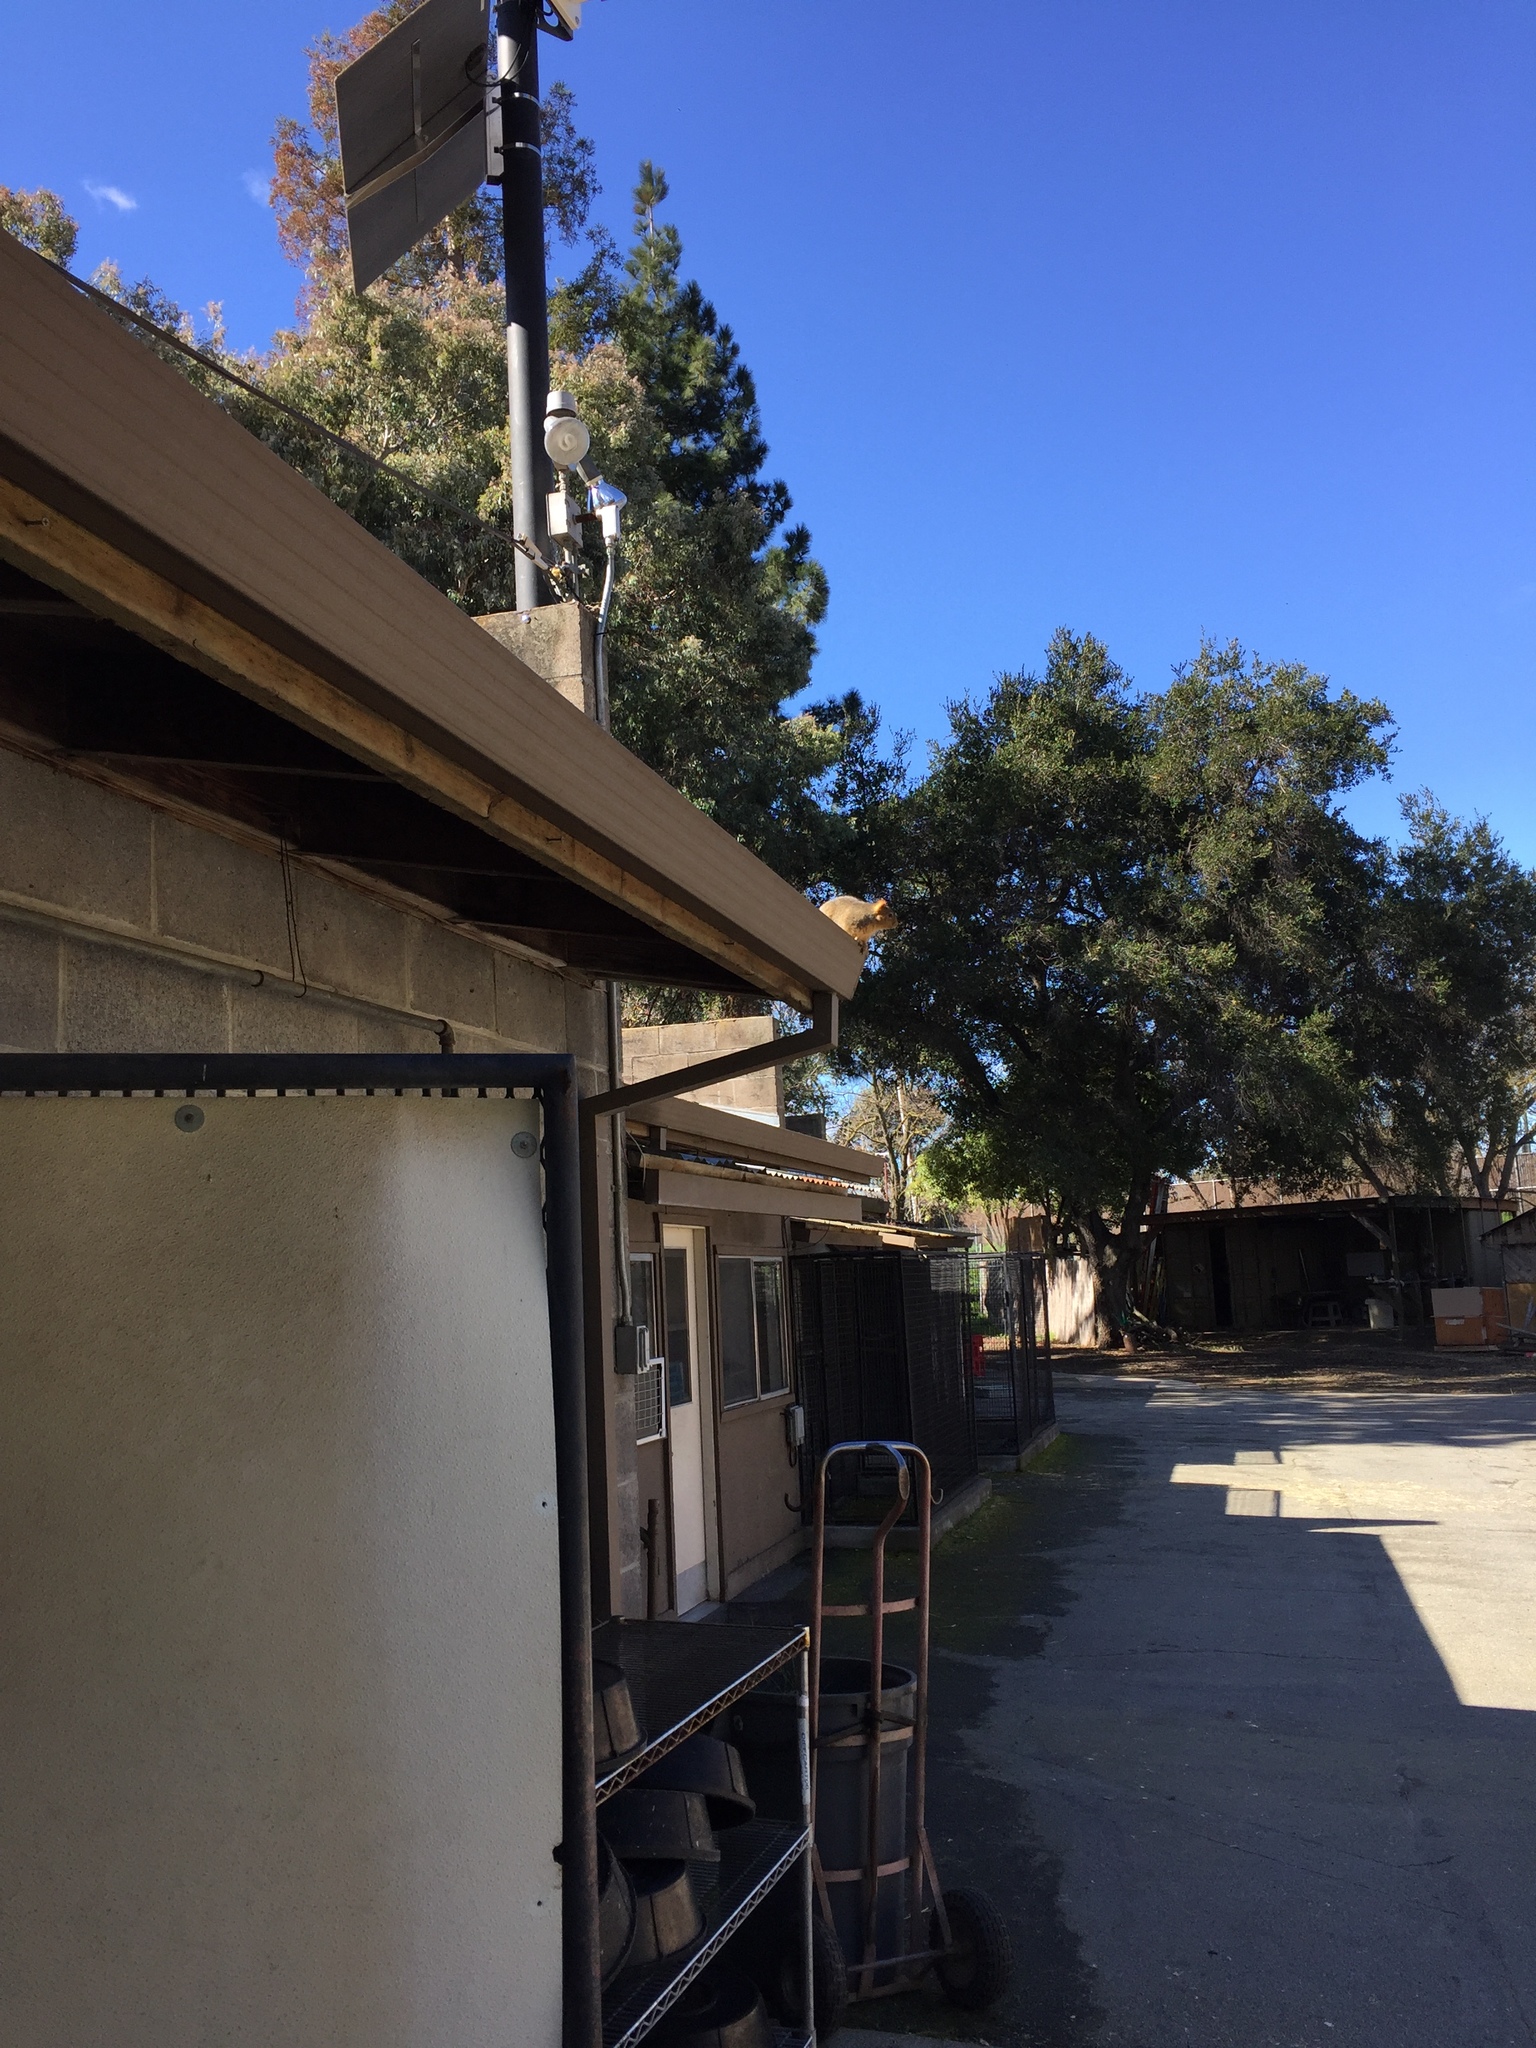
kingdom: Animalia
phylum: Chordata
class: Mammalia
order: Rodentia
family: Sciuridae
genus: Sciurus
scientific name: Sciurus niger
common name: Fox squirrel
